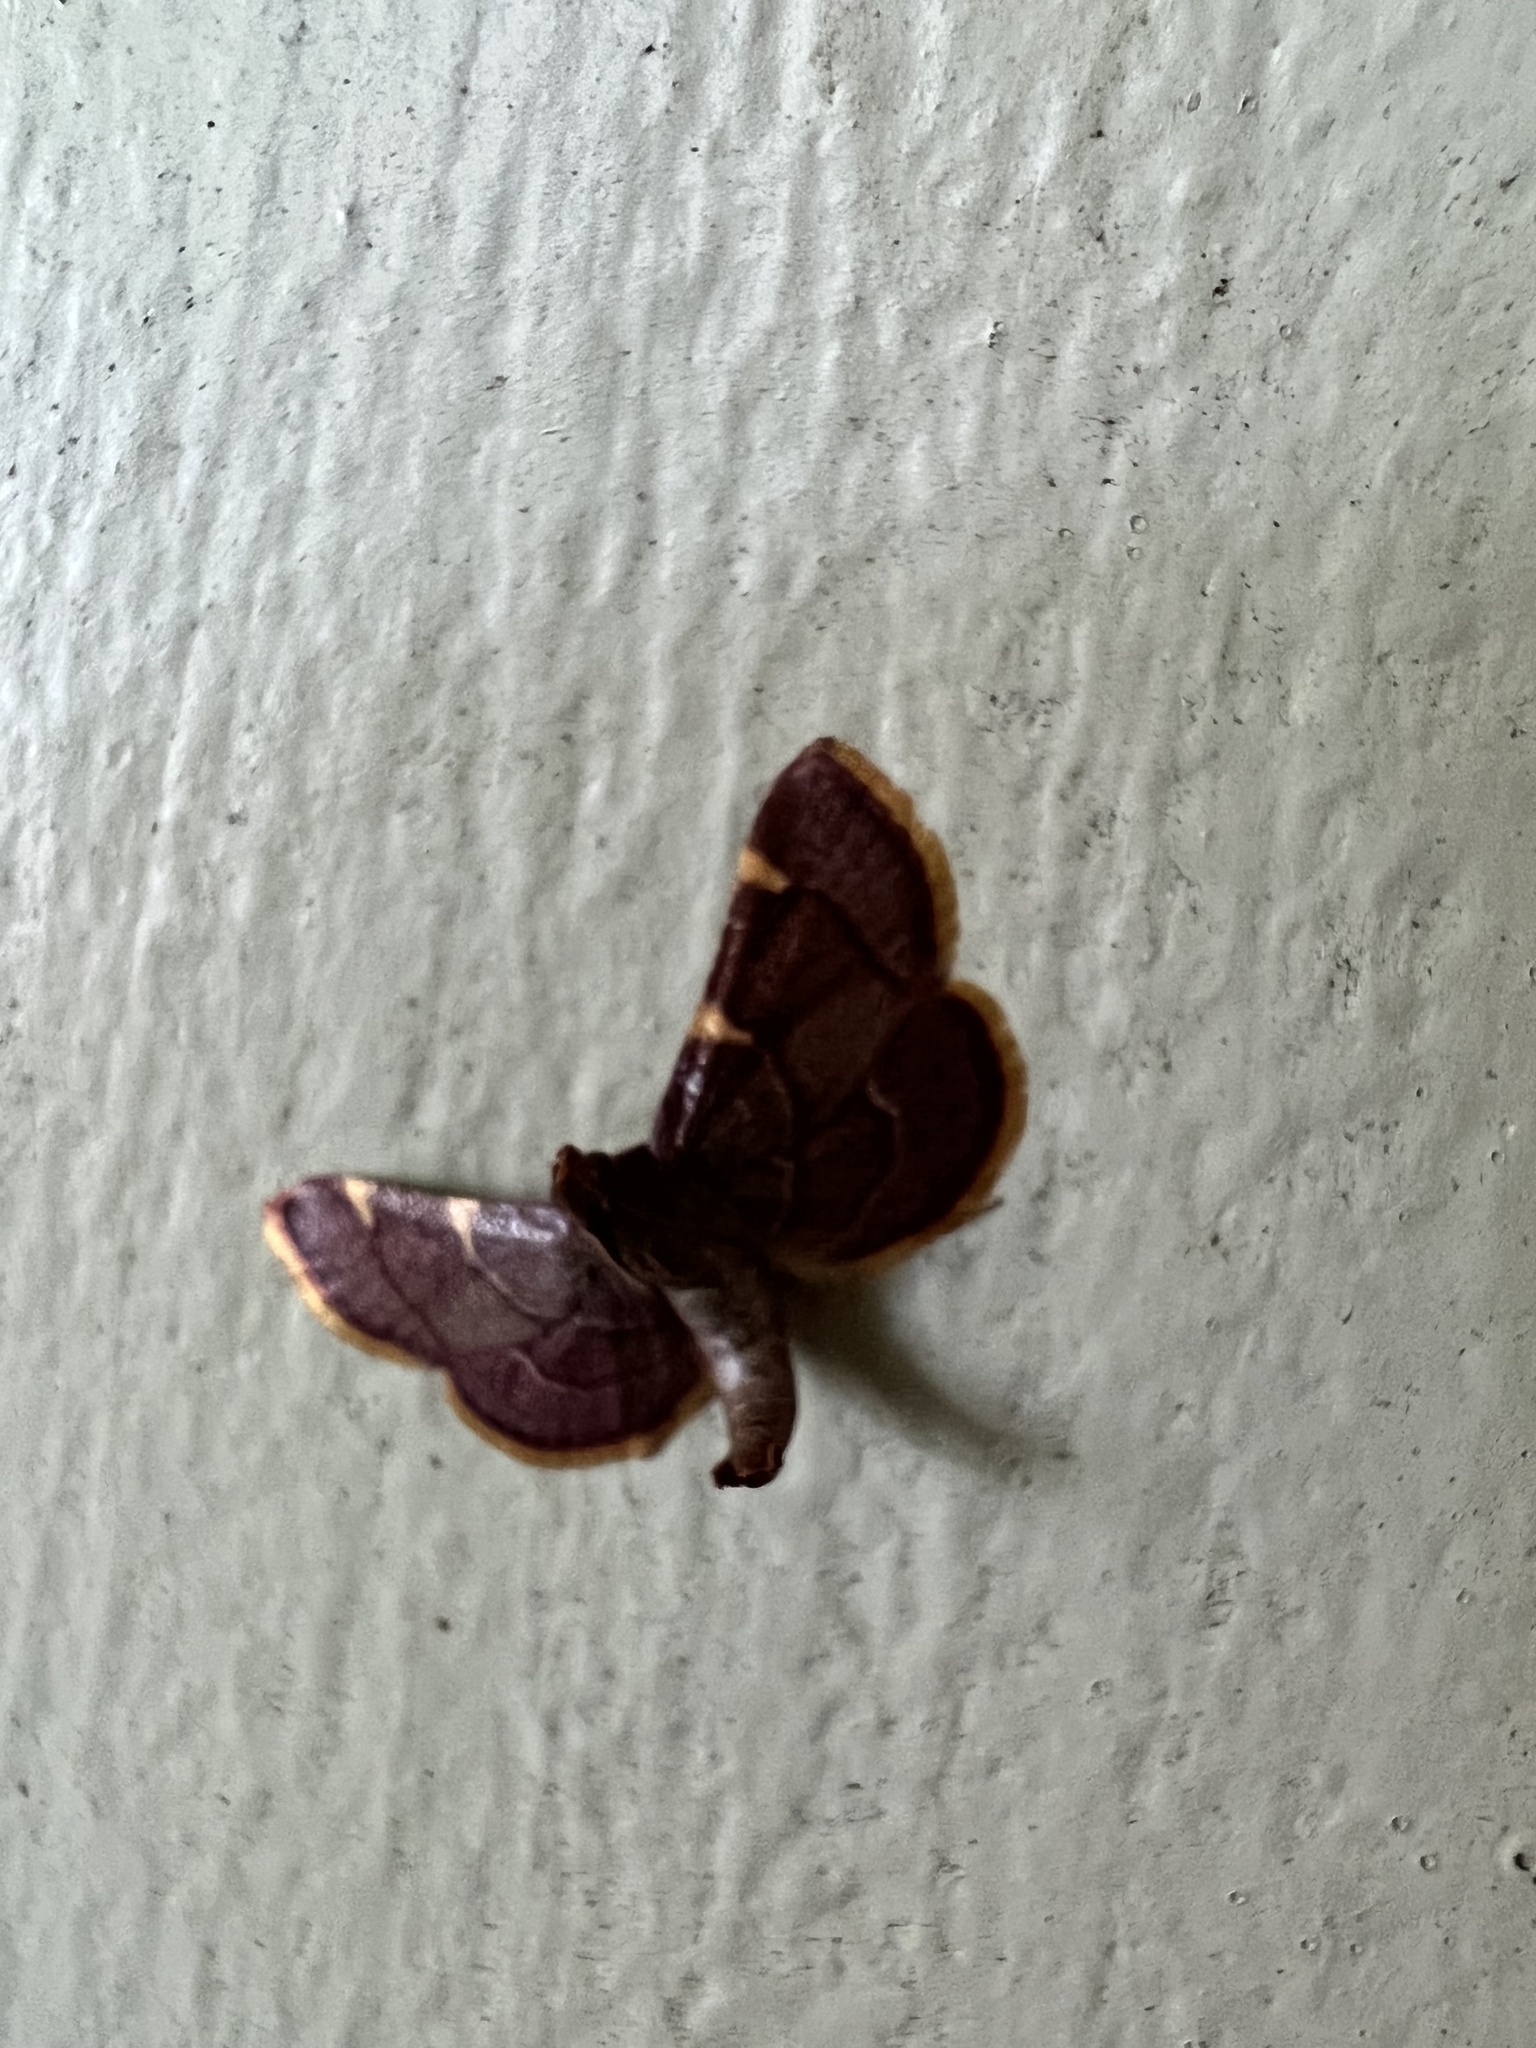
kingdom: Animalia
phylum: Arthropoda
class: Insecta
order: Lepidoptera
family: Pyralidae
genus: Hypsopygia
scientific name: Hypsopygia olinalis
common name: Yellow-fringed dolichomia moth
